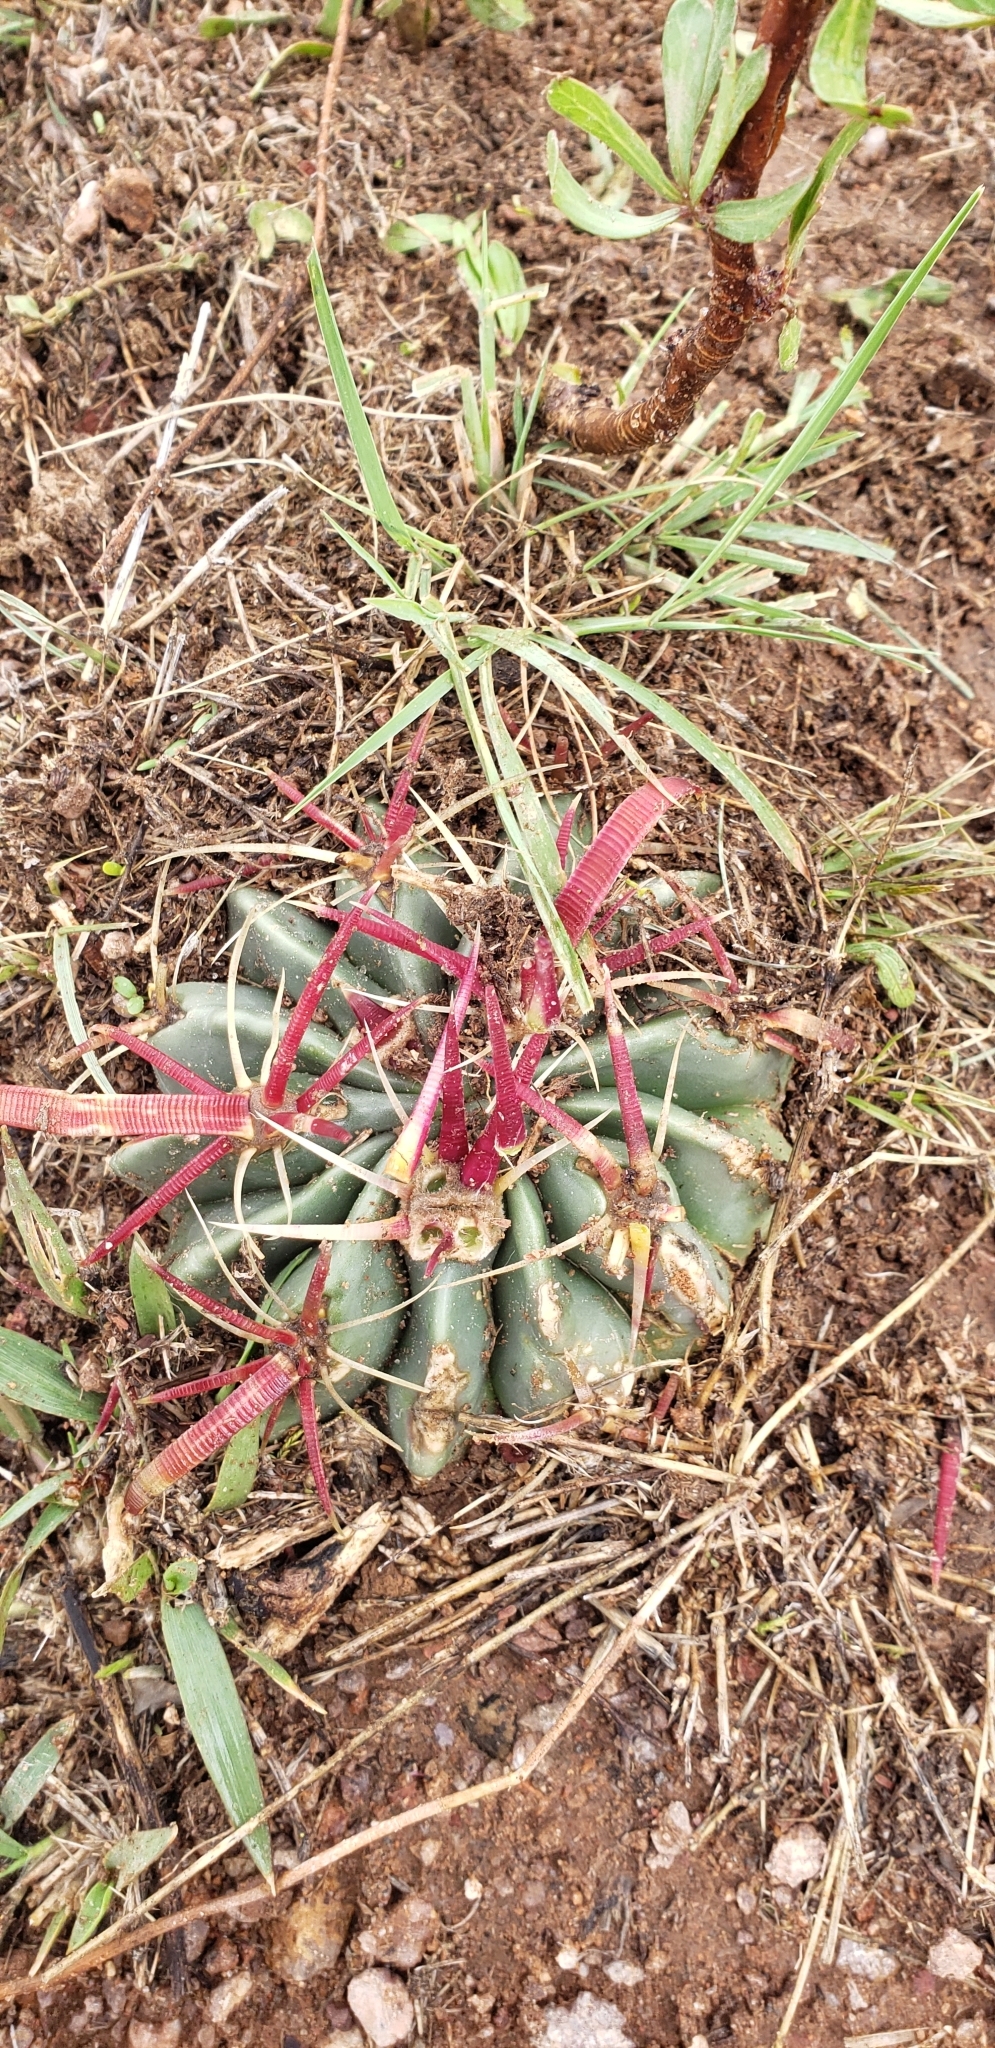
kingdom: Plantae
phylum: Tracheophyta
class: Magnoliopsida
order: Caryophyllales
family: Cactaceae
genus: Ferocactus
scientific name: Ferocactus latispinus
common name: Devil's-tongue cactus
